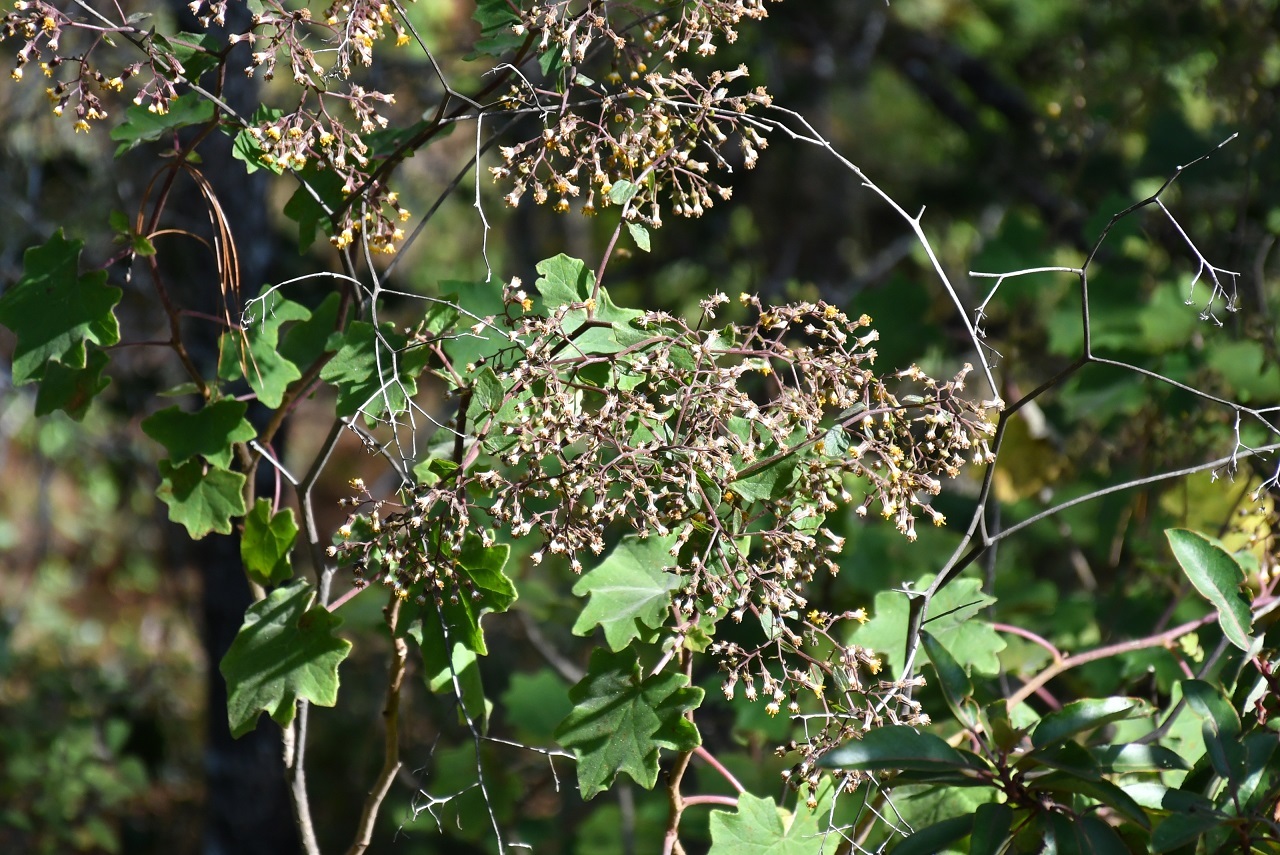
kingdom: Plantae
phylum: Tracheophyta
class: Magnoliopsida
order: Asterales
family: Asteraceae
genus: Roldana
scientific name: Roldana cristobalensis
